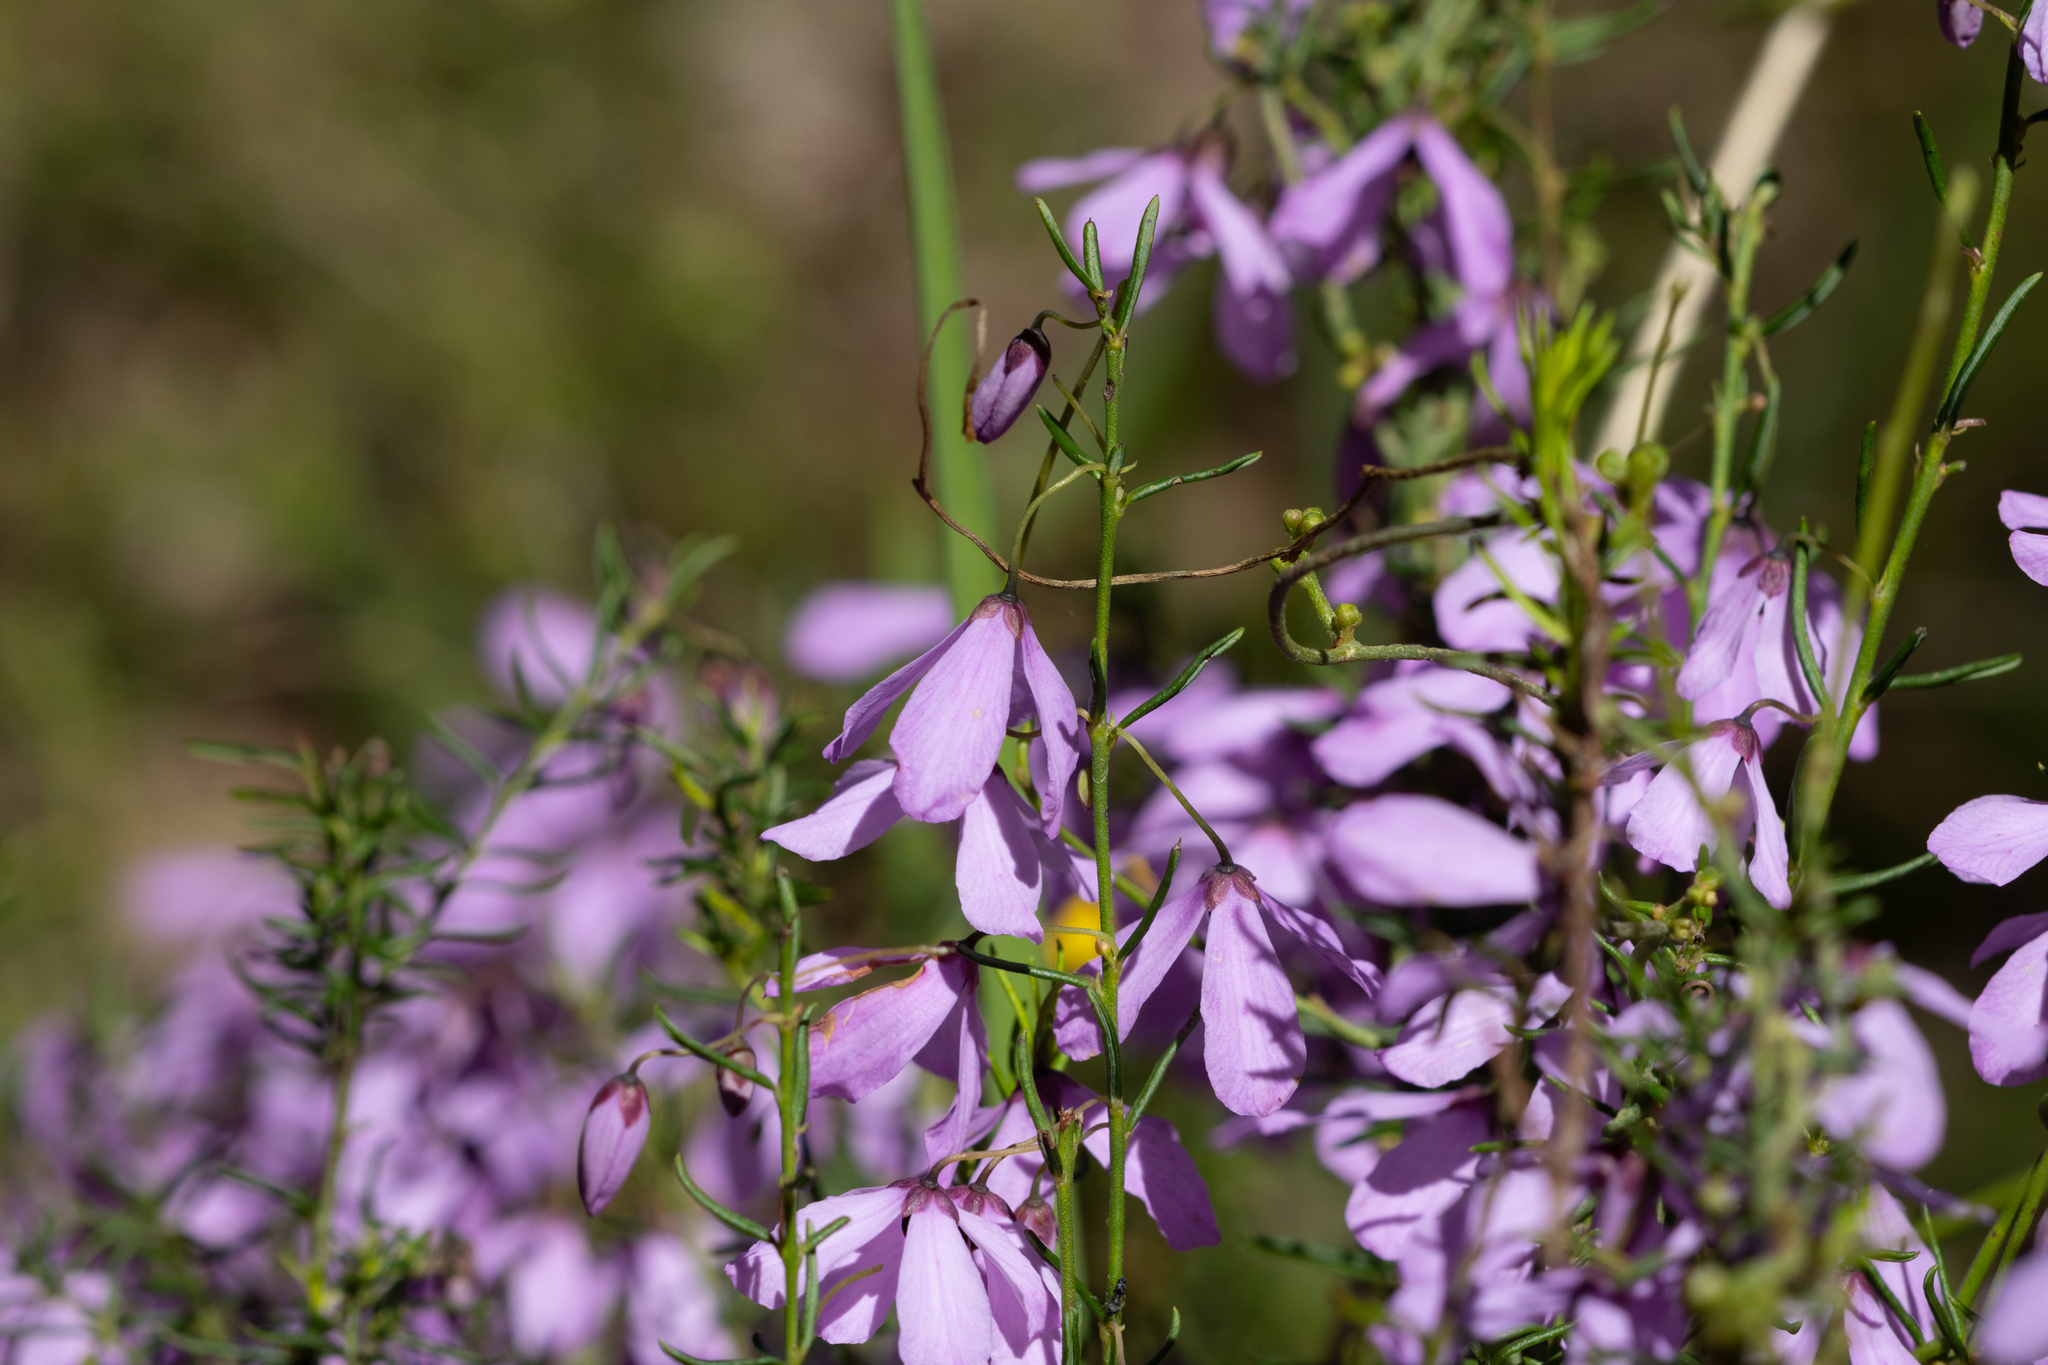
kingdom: Plantae
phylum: Tracheophyta
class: Magnoliopsida
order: Oxalidales
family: Elaeocarpaceae
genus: Tetratheca
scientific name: Tetratheca pilosa
